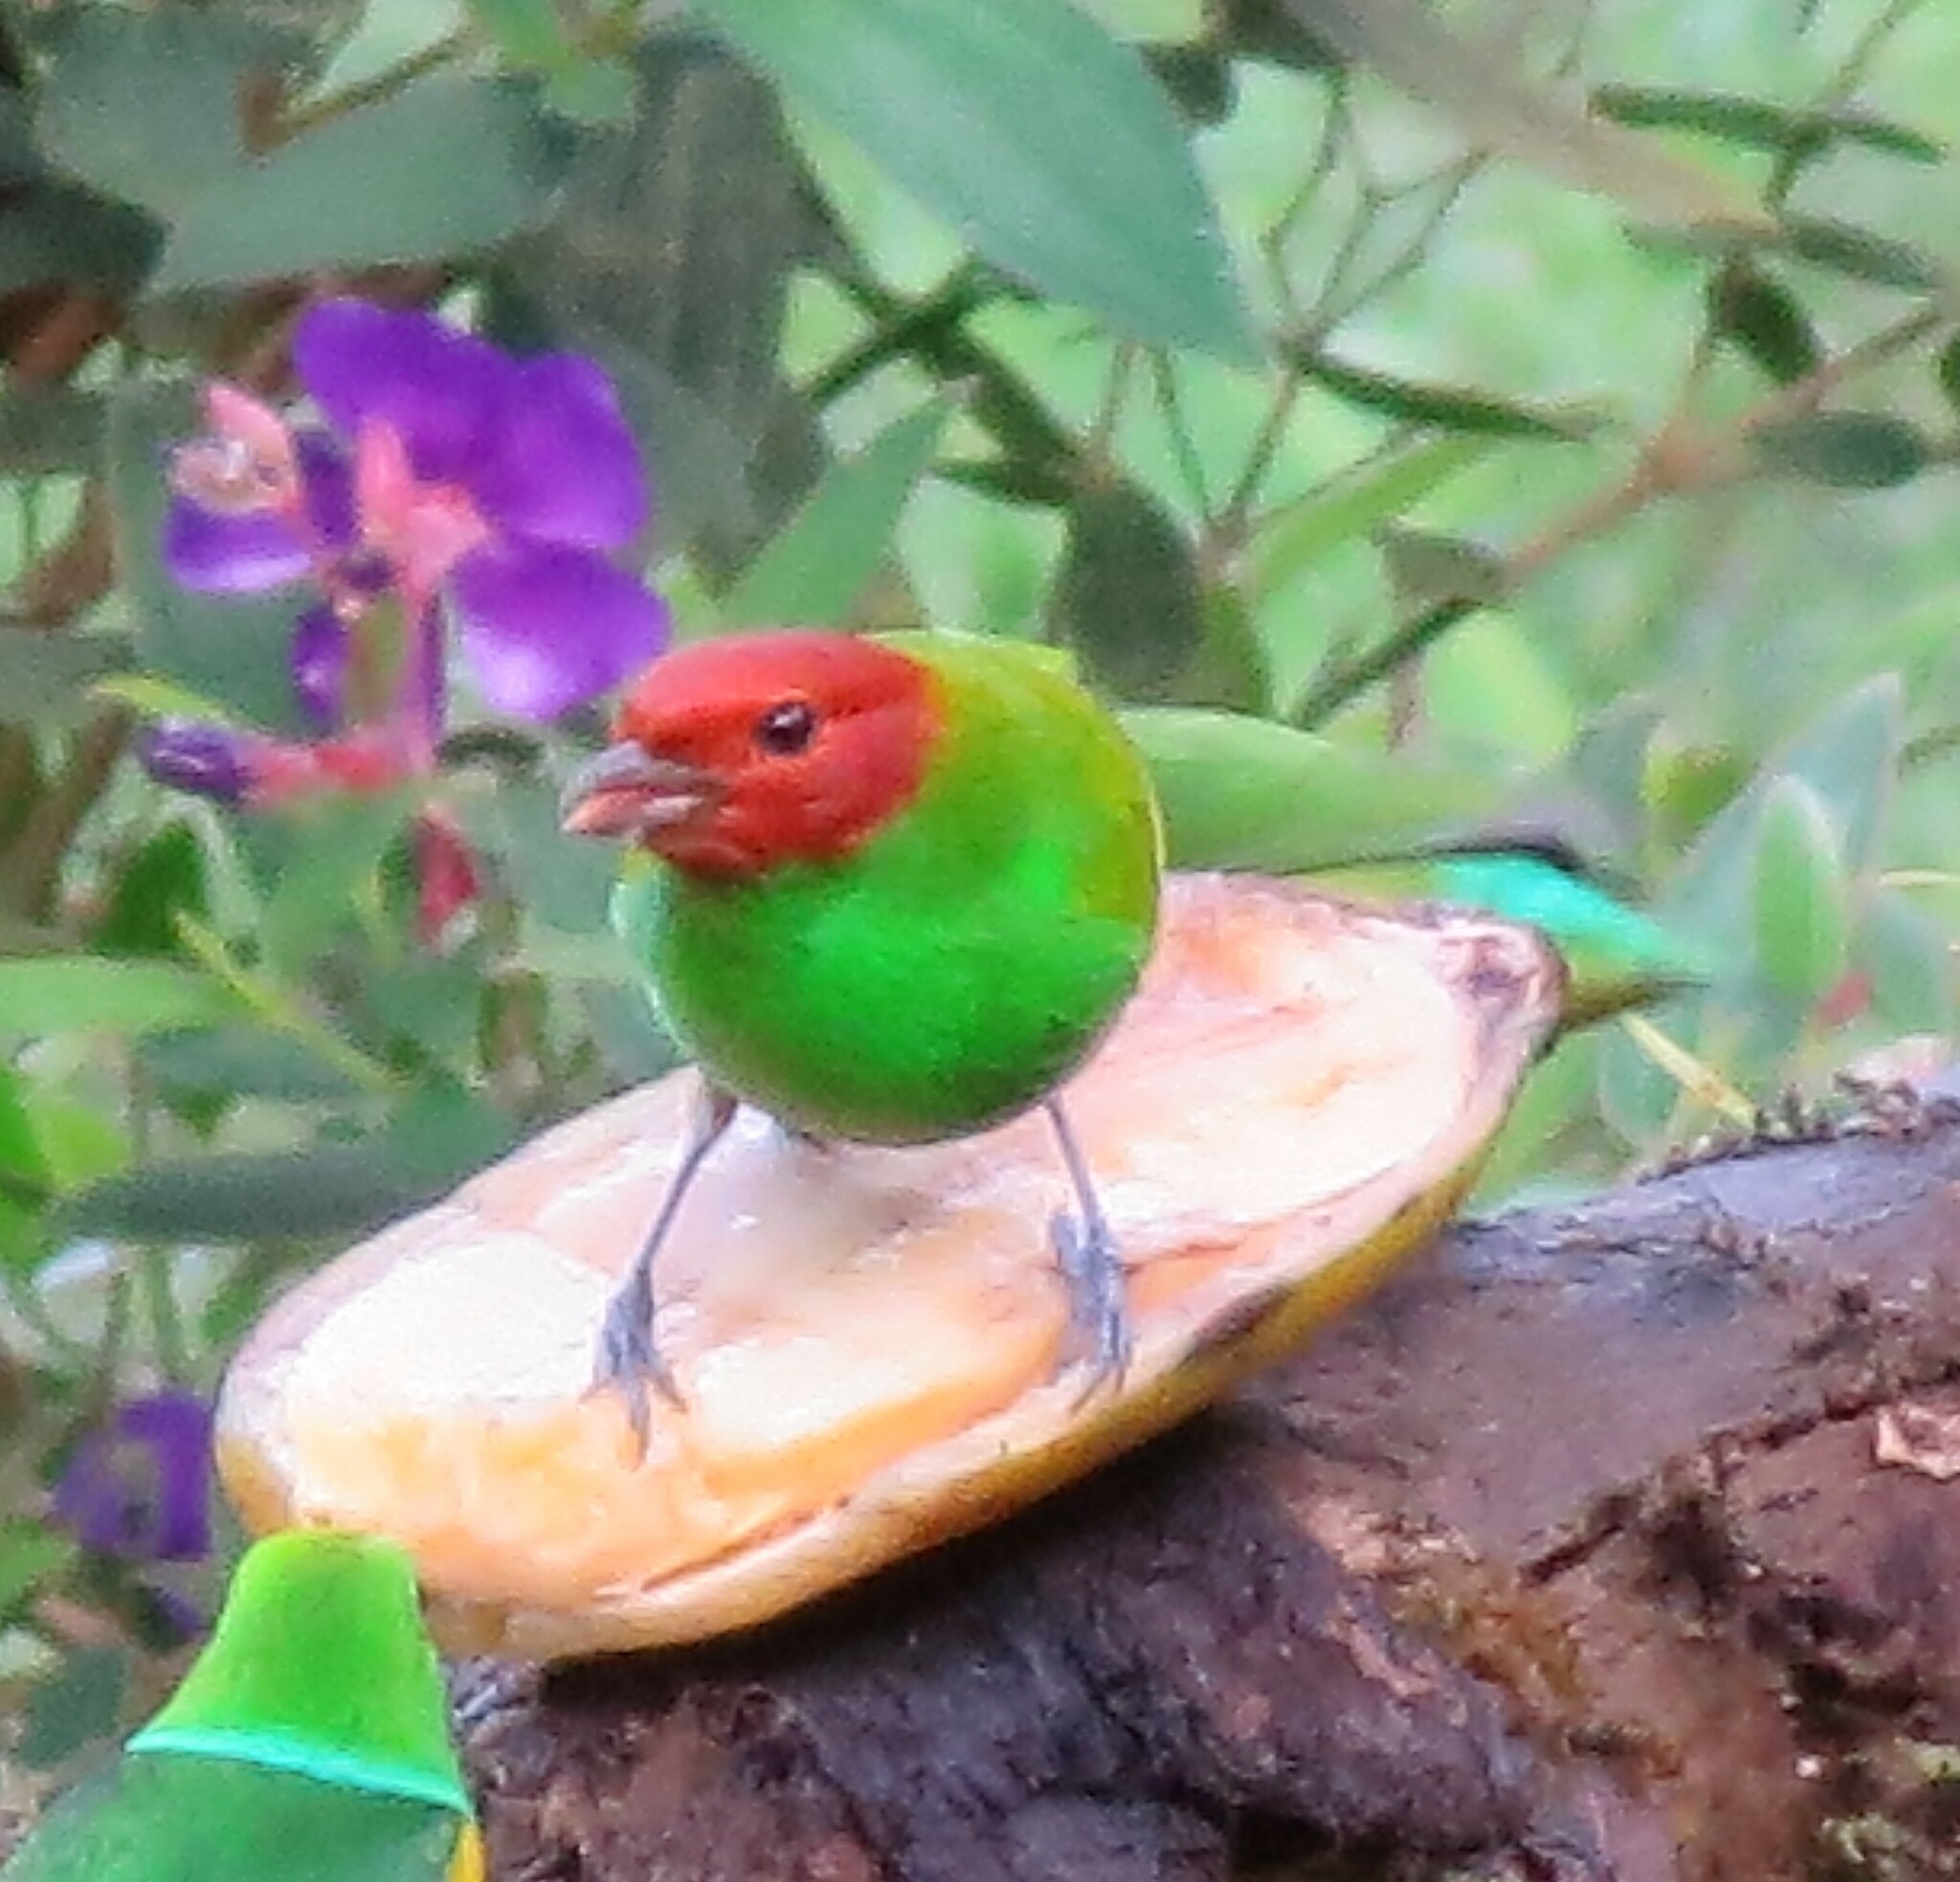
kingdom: Animalia
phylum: Chordata
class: Aves
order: Passeriformes
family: Thraupidae
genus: Tangara
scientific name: Tangara gyrola
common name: Bay-headed tanager
